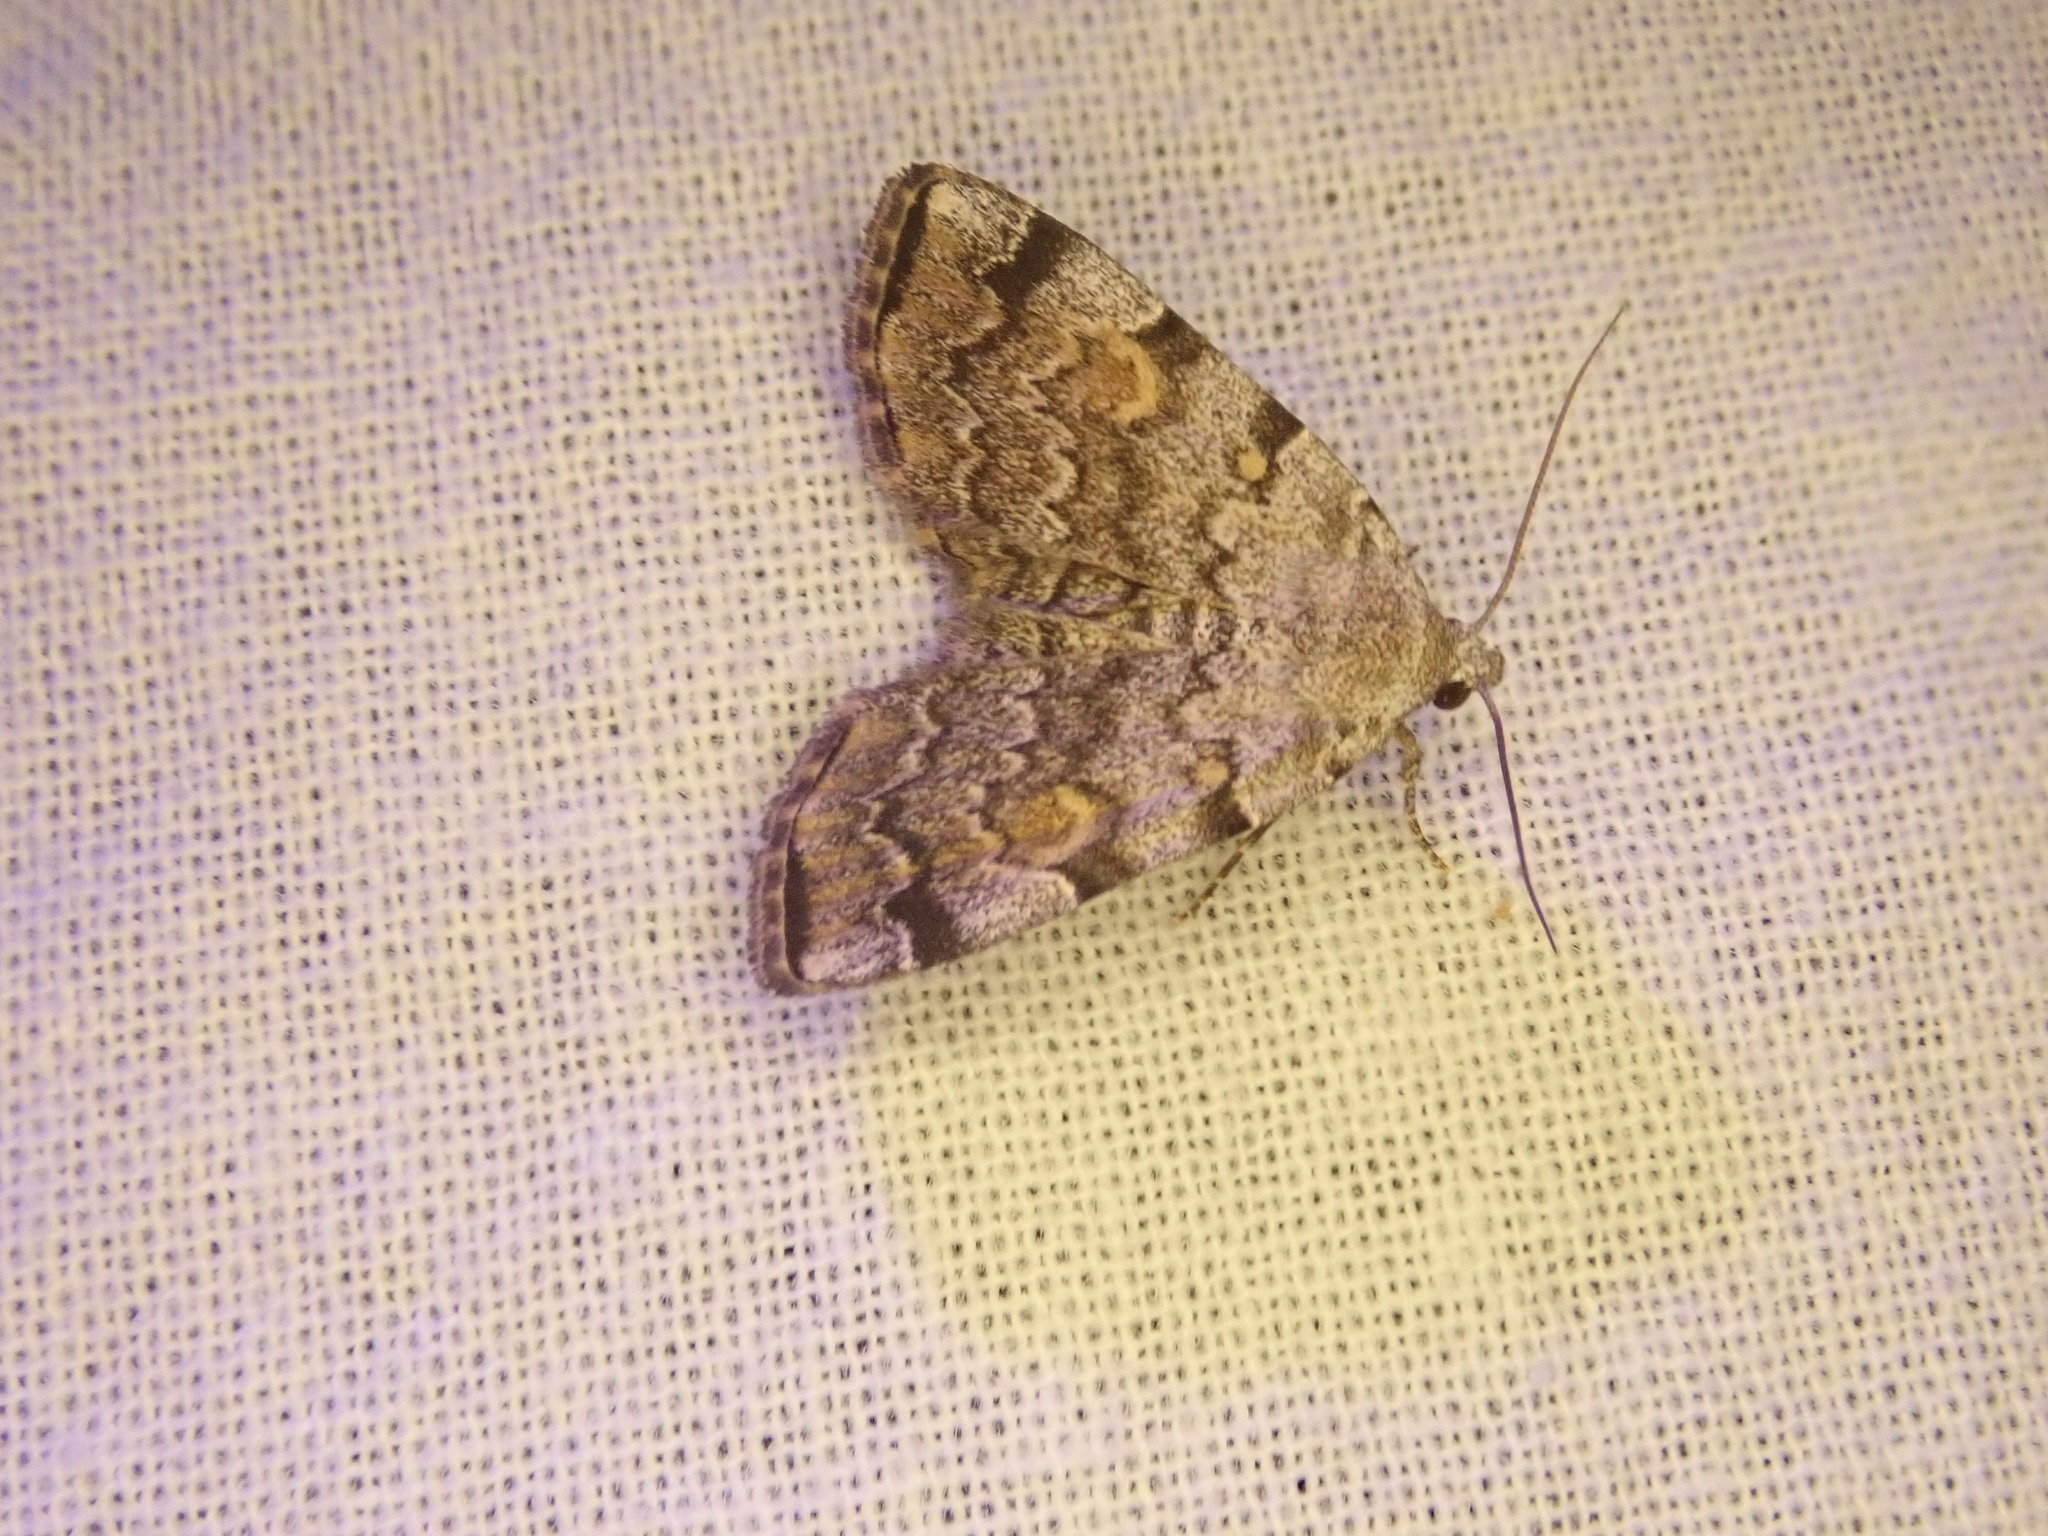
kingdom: Animalia
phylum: Arthropoda
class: Insecta
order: Lepidoptera
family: Erebidae
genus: Idia
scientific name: Idia americalis
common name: American idia moth
